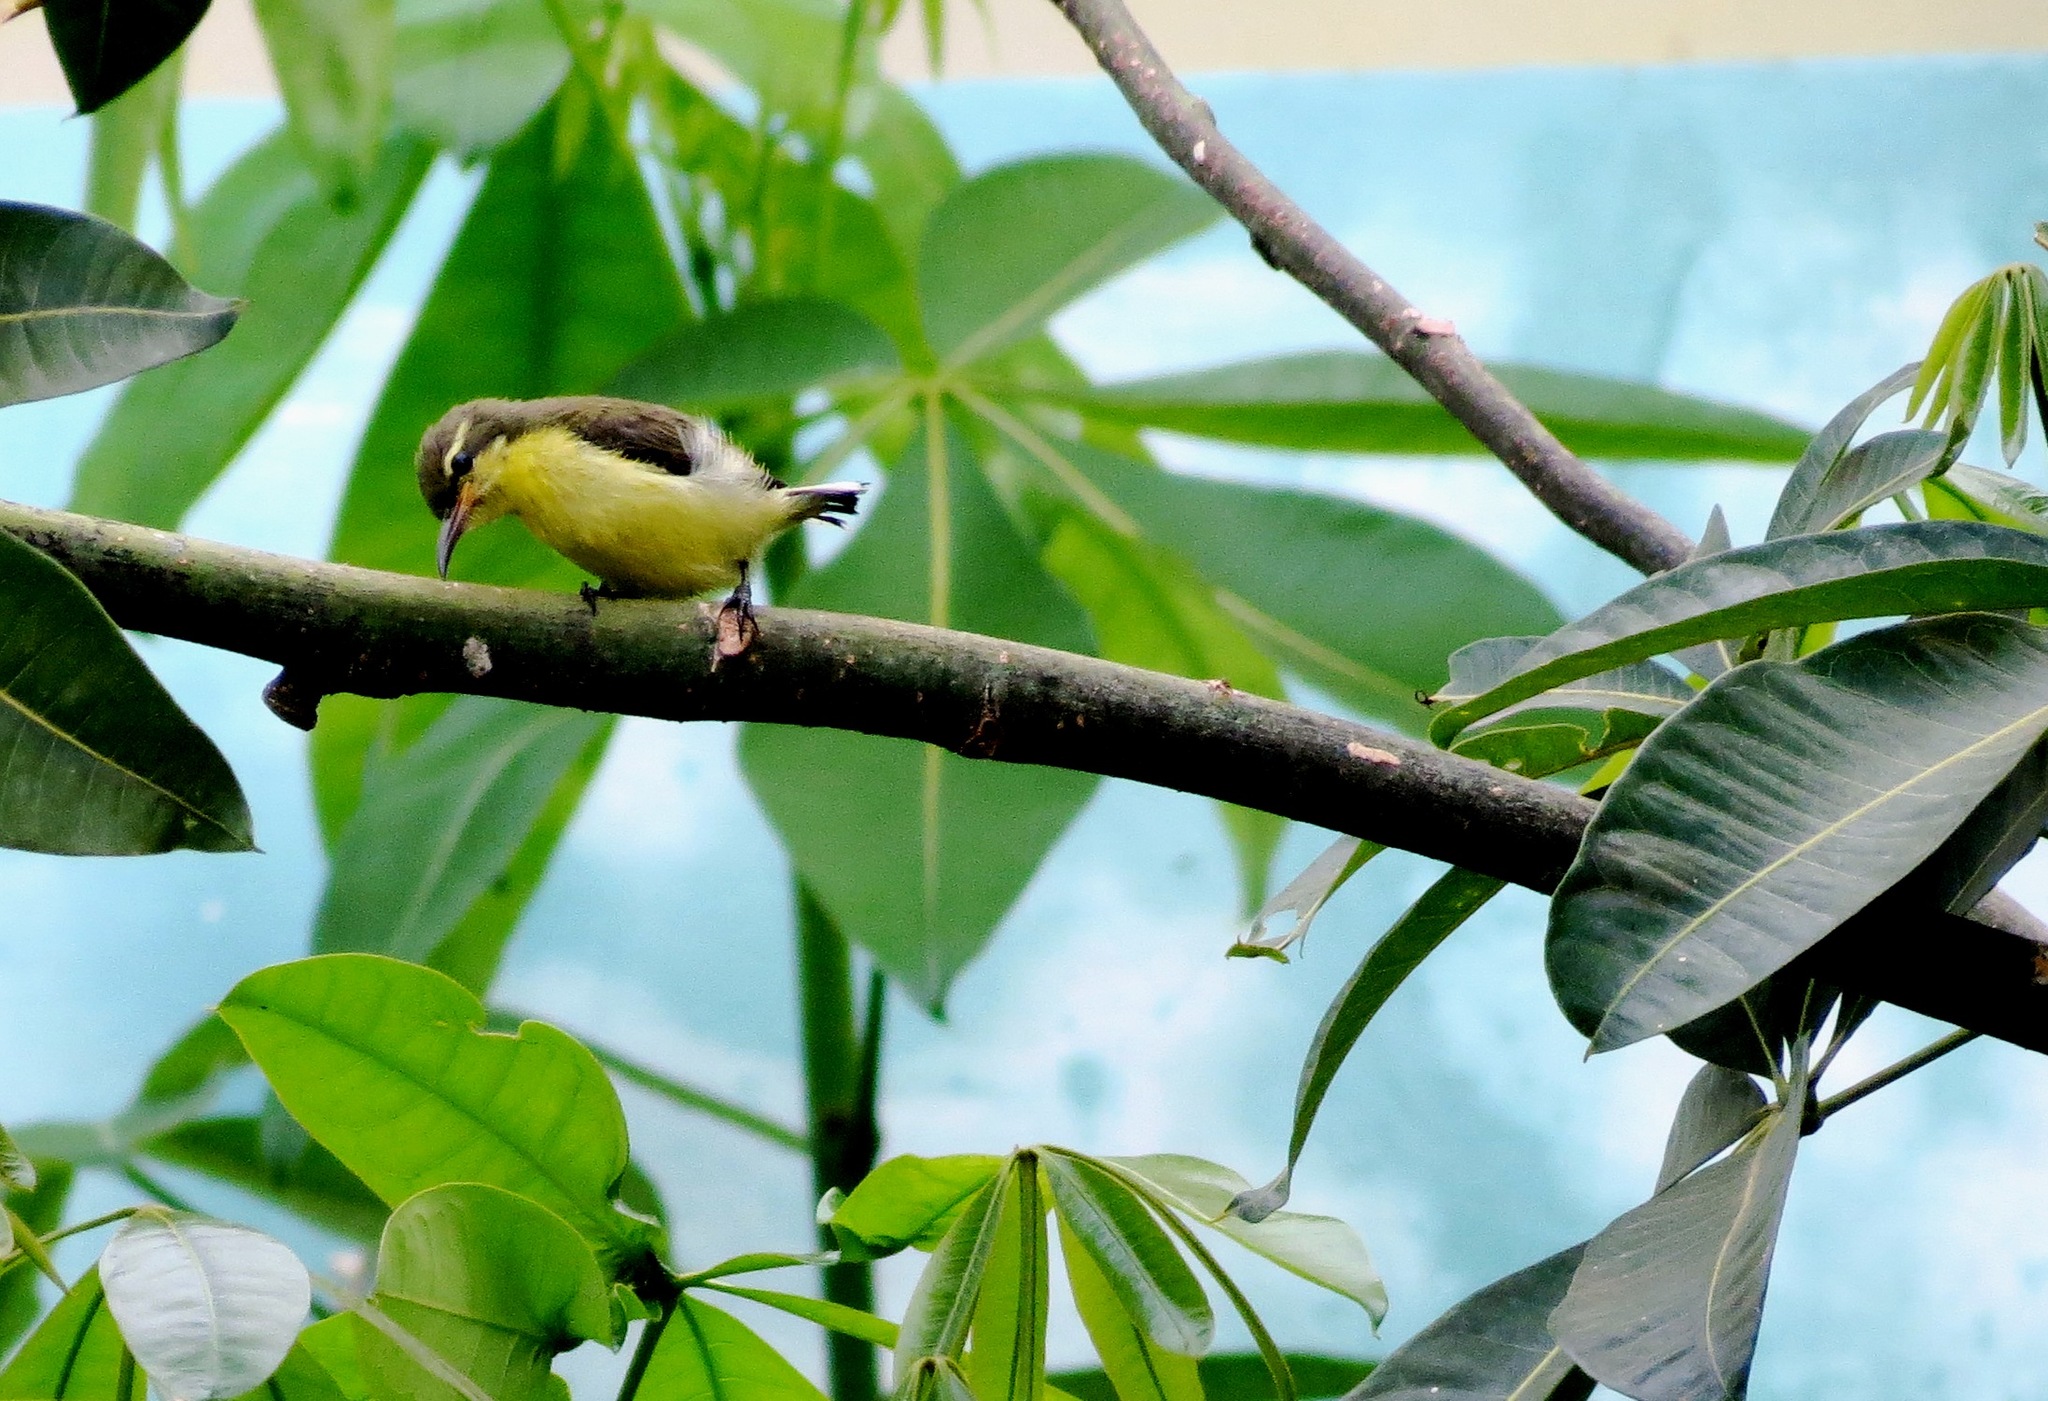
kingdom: Animalia
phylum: Chordata
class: Aves
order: Passeriformes
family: Nectariniidae
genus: Cinnyris
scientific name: Cinnyris jugularis
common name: Olive-backed sunbird
